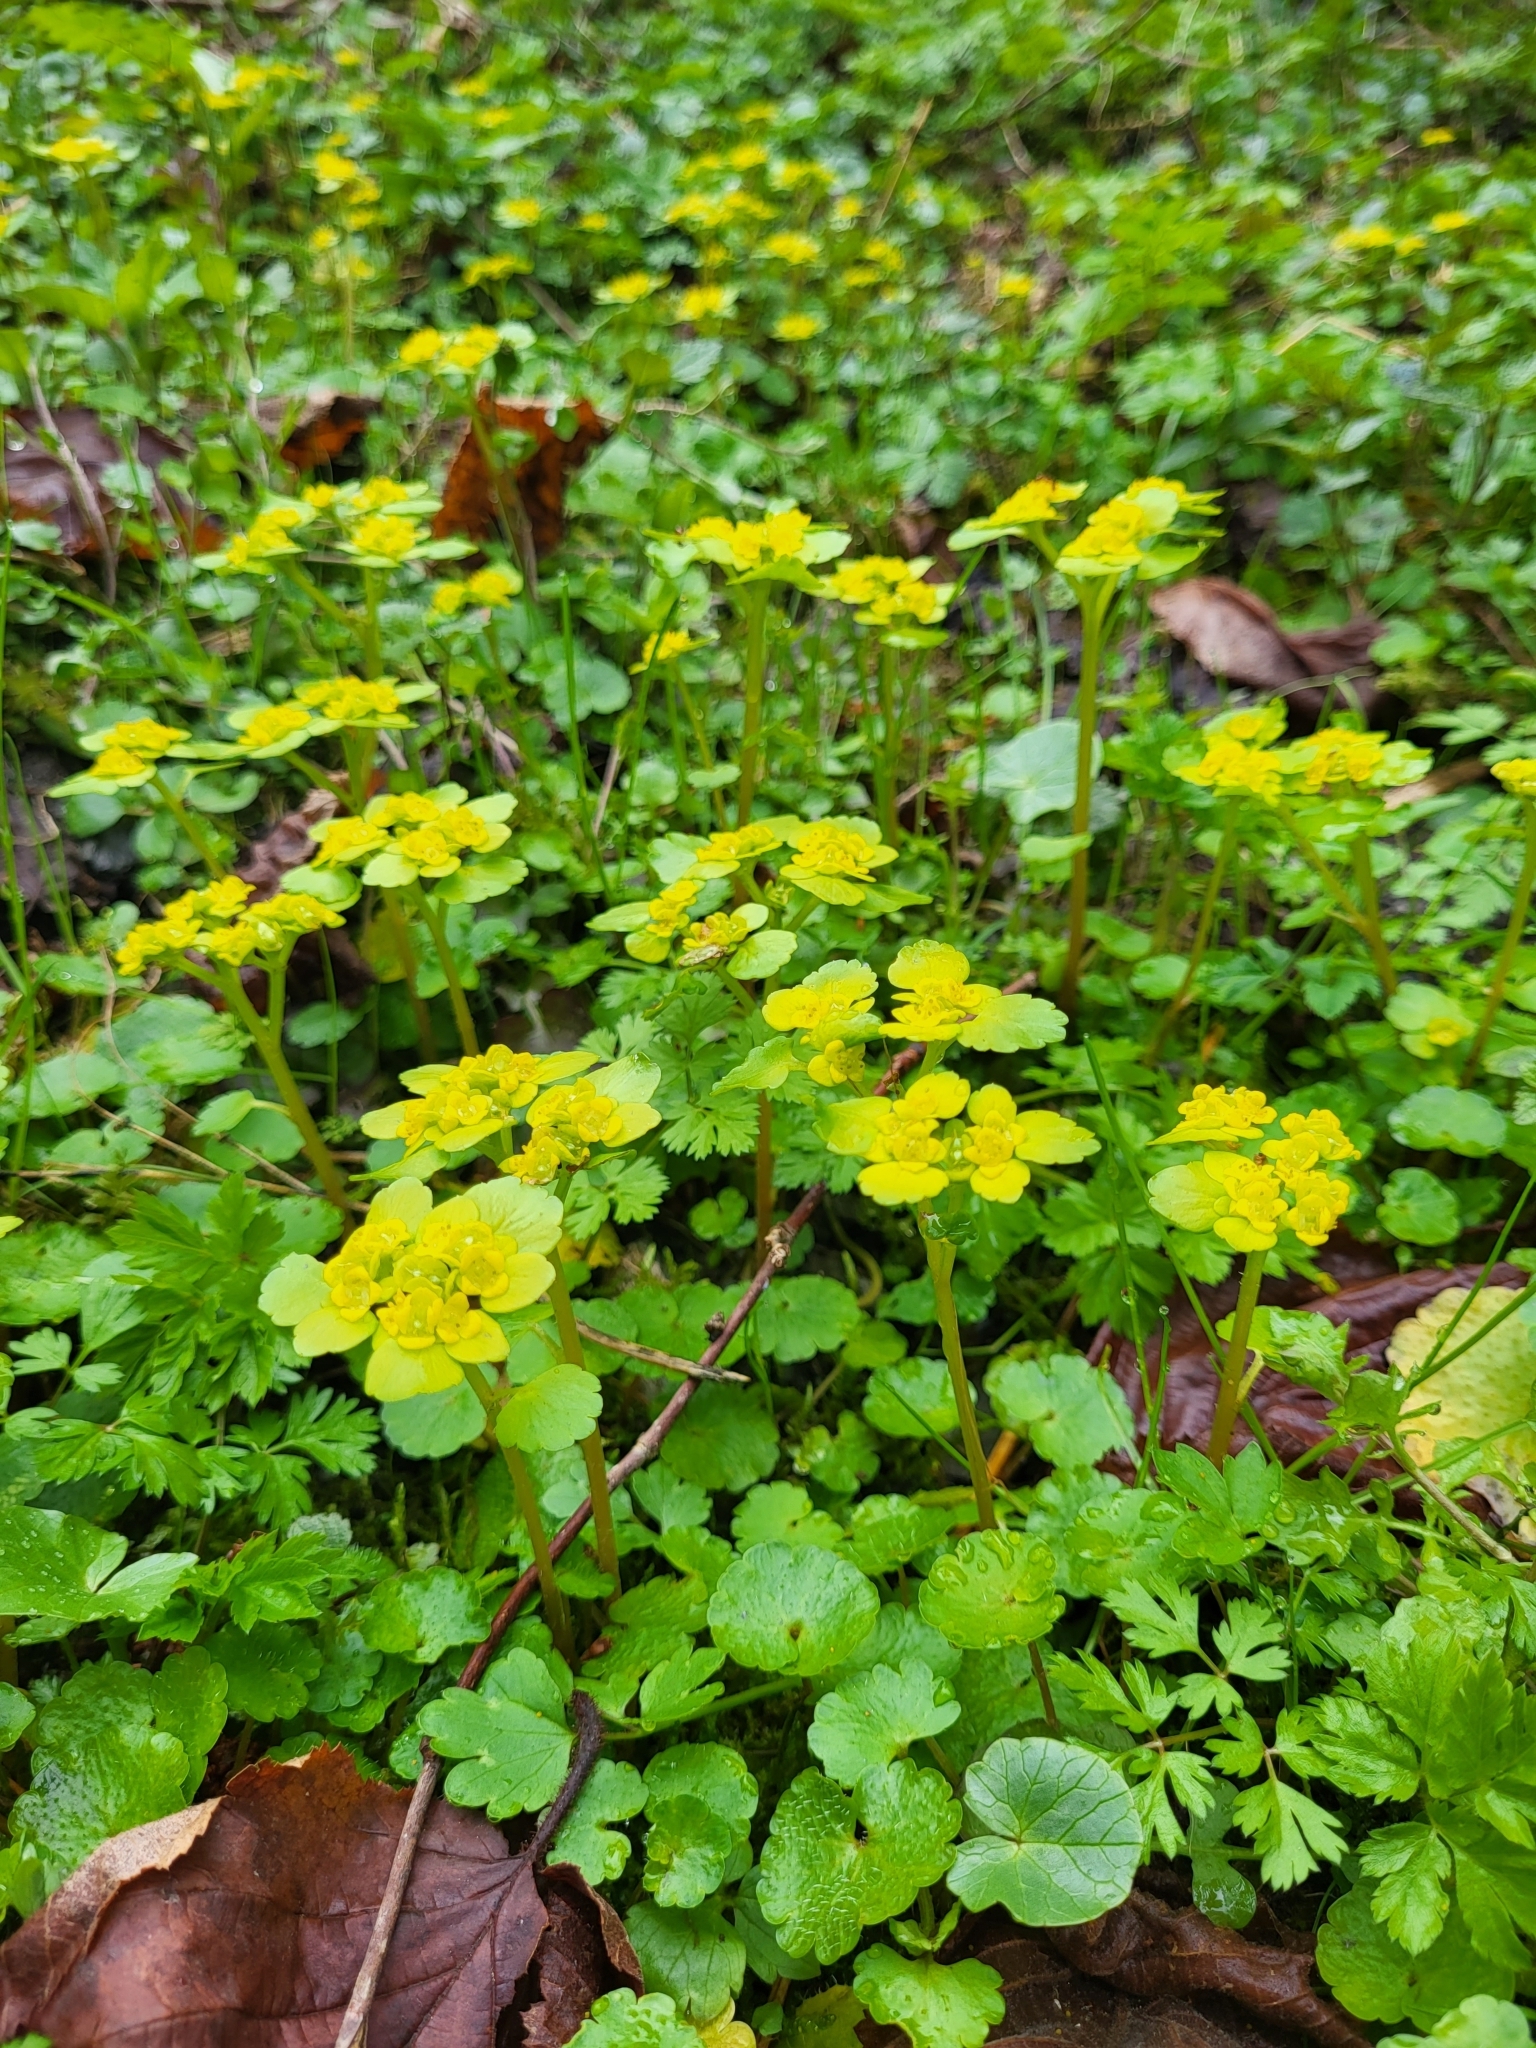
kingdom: Plantae
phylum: Tracheophyta
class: Magnoliopsida
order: Saxifragales
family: Saxifragaceae
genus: Chrysosplenium
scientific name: Chrysosplenium alternifolium
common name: Alternate-leaved golden-saxifrage
